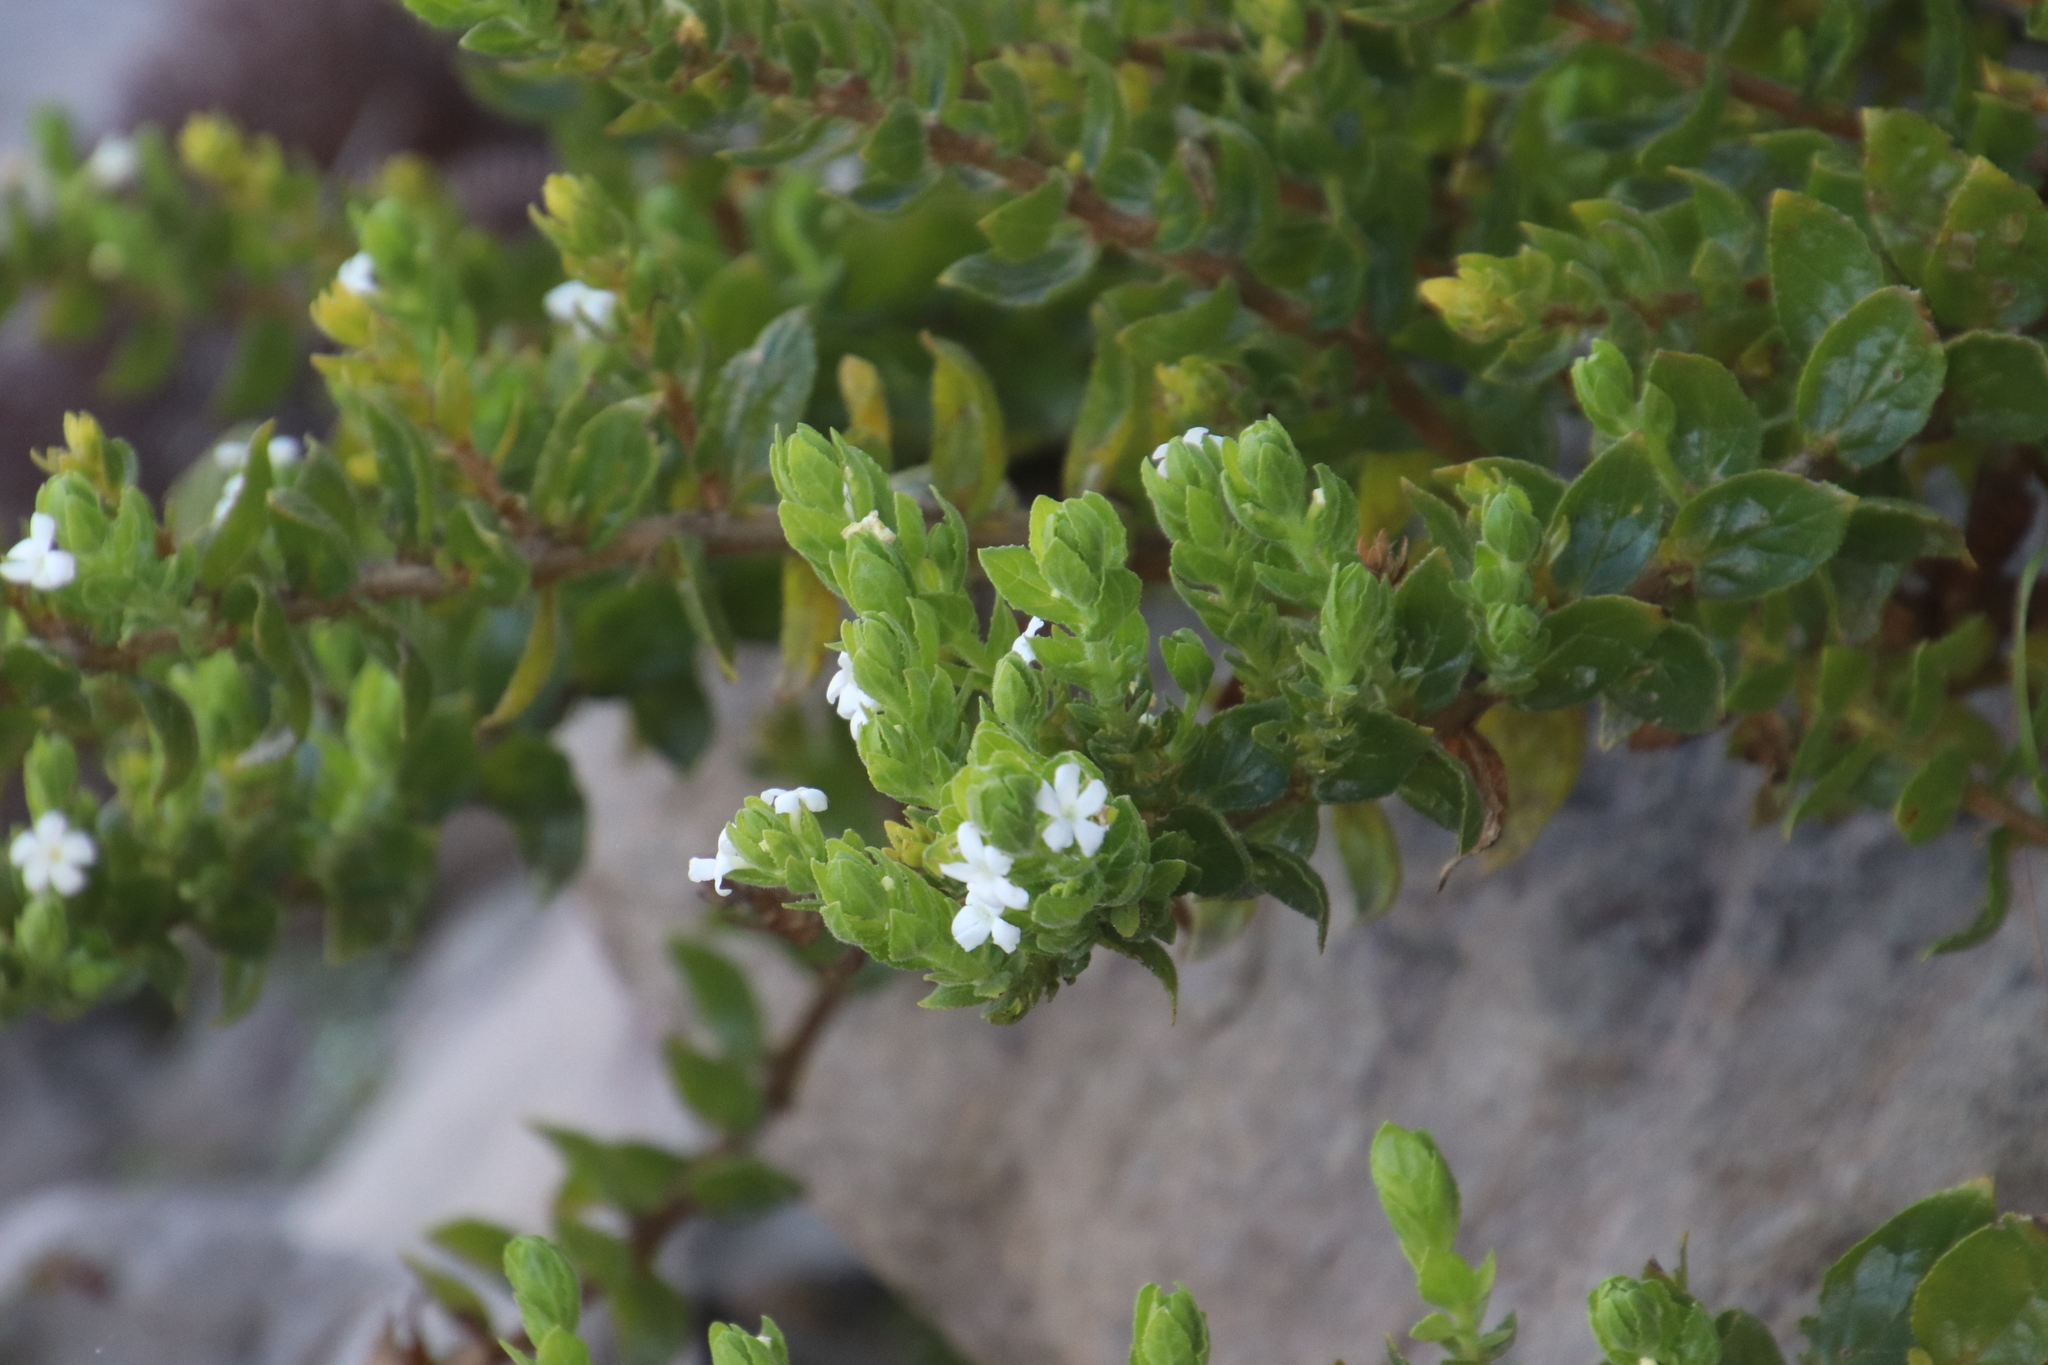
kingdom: Plantae
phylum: Tracheophyta
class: Magnoliopsida
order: Lamiales
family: Scrophulariaceae
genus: Oftia
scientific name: Oftia africana
